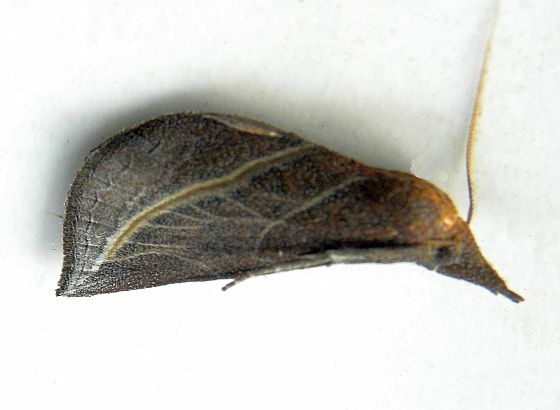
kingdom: Animalia
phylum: Arthropoda
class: Insecta
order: Lepidoptera
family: Erebidae
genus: Phyprosopus
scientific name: Phyprosopus callitrichoides
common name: Curved-lined owlet
